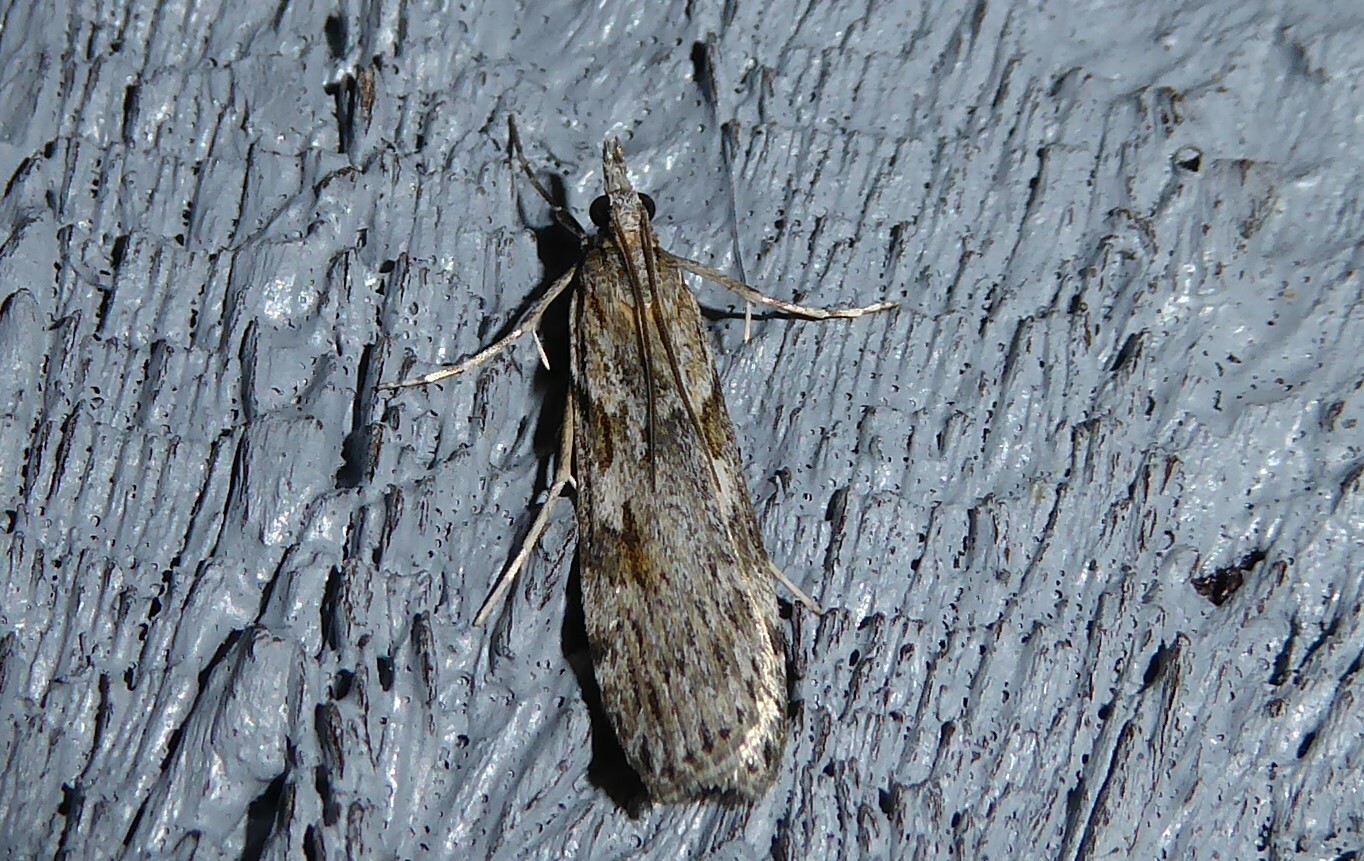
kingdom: Animalia
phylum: Arthropoda
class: Insecta
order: Lepidoptera
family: Crambidae
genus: Scoparia
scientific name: Scoparia halopis
